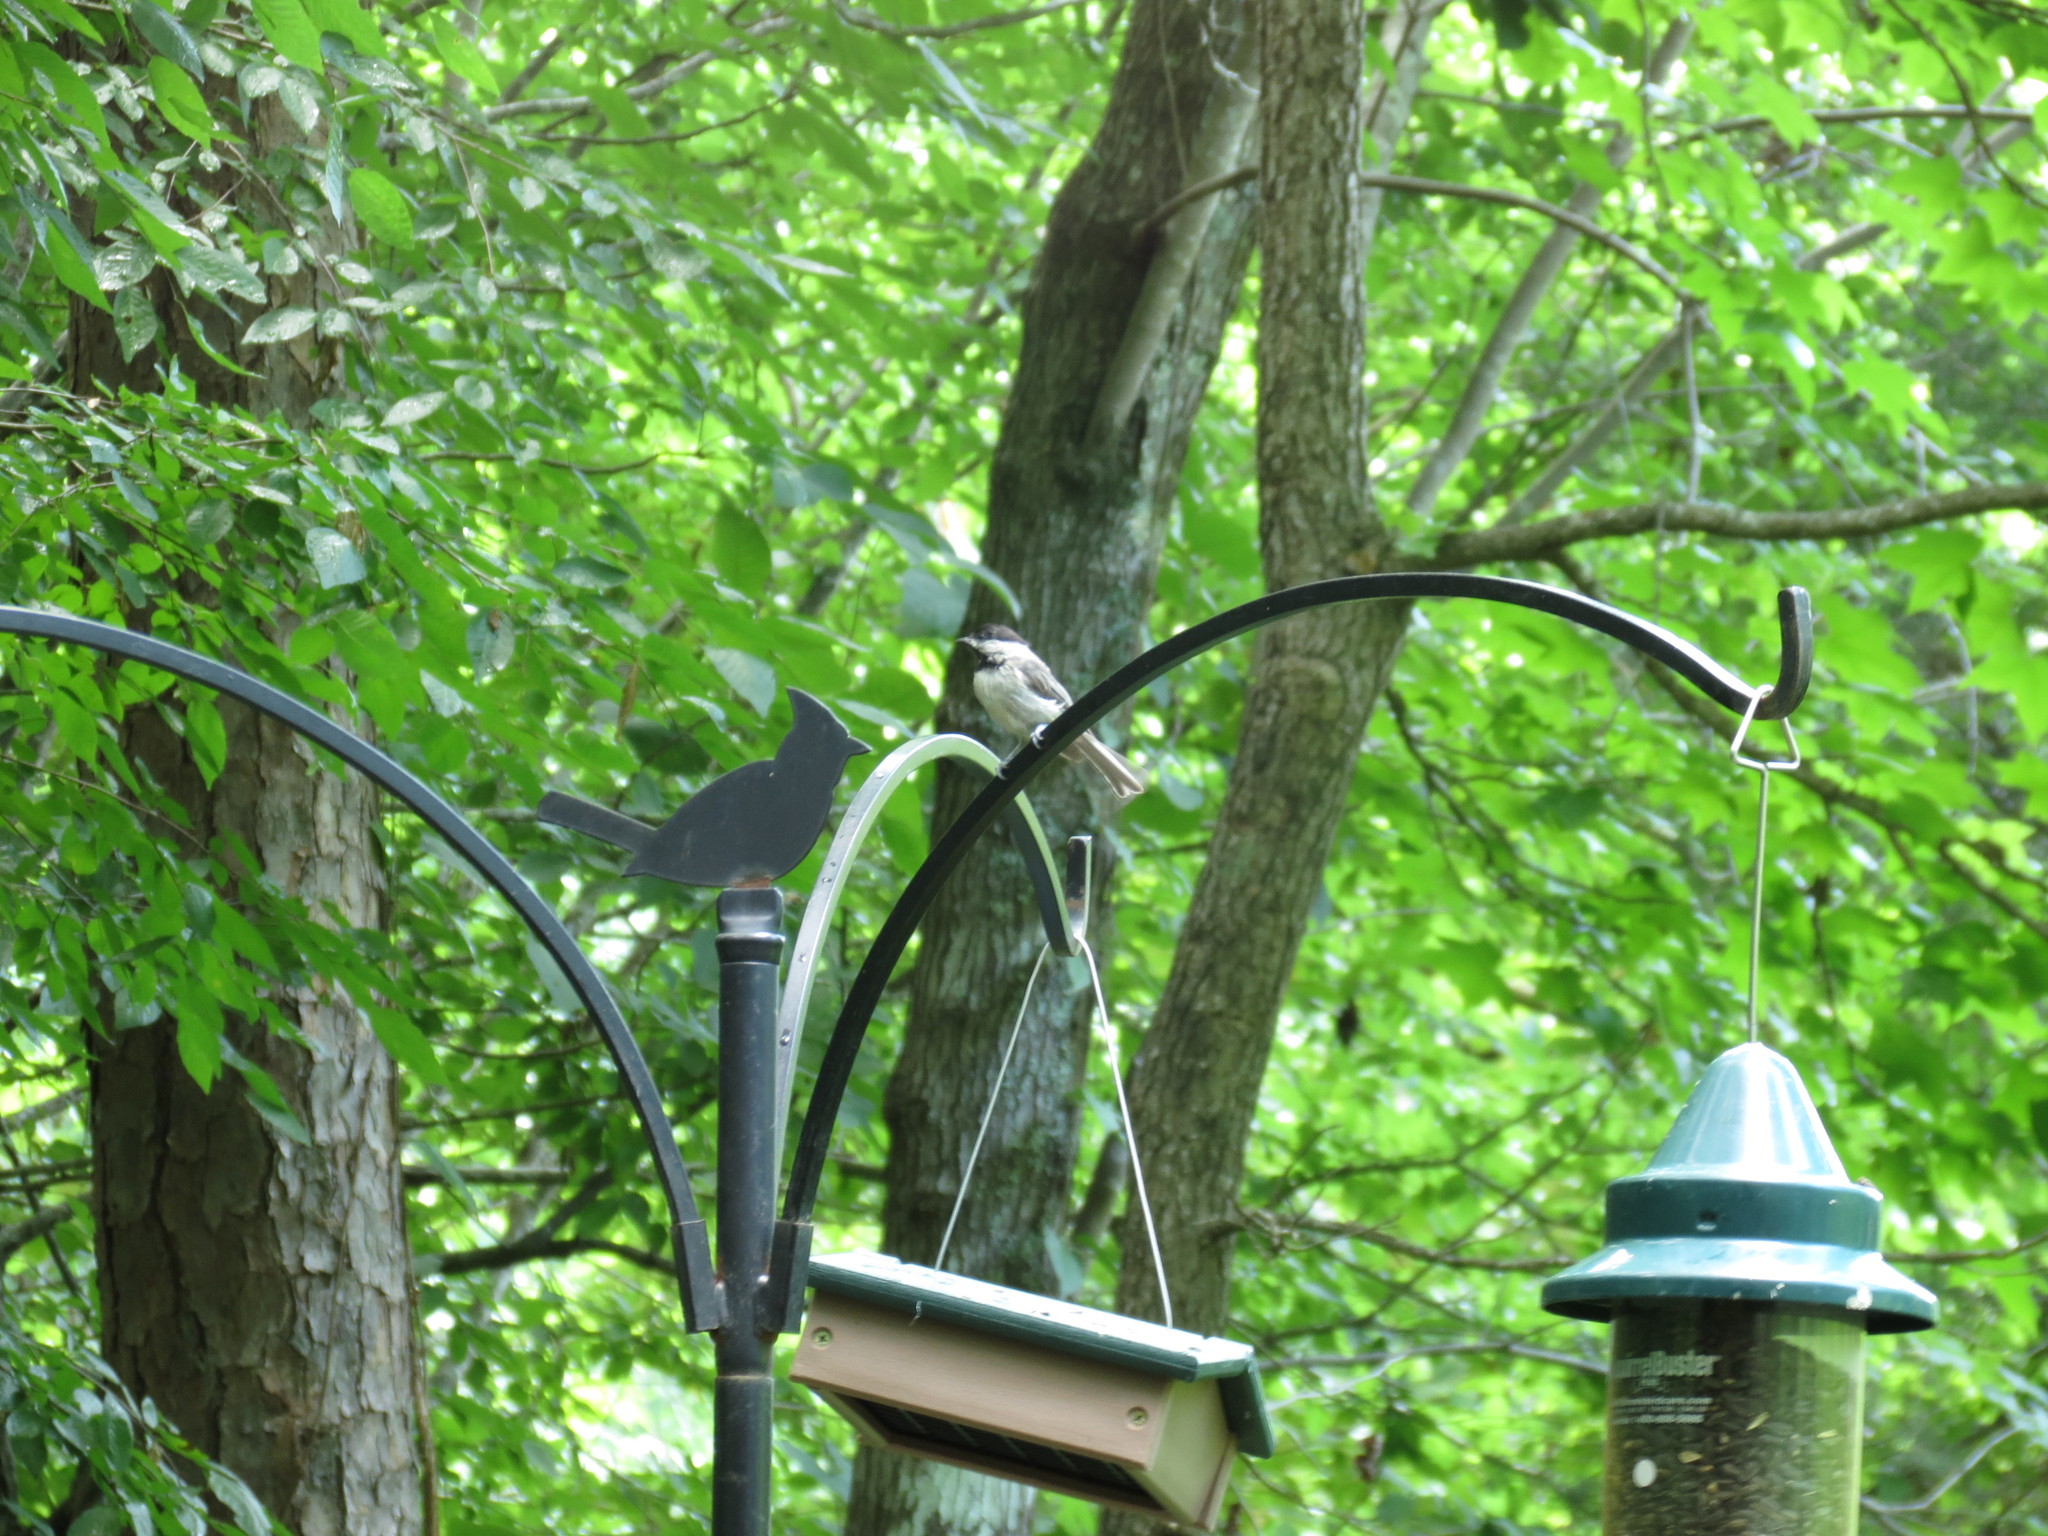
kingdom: Animalia
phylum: Chordata
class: Aves
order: Passeriformes
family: Paridae
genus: Poecile
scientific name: Poecile carolinensis
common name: Carolina chickadee
